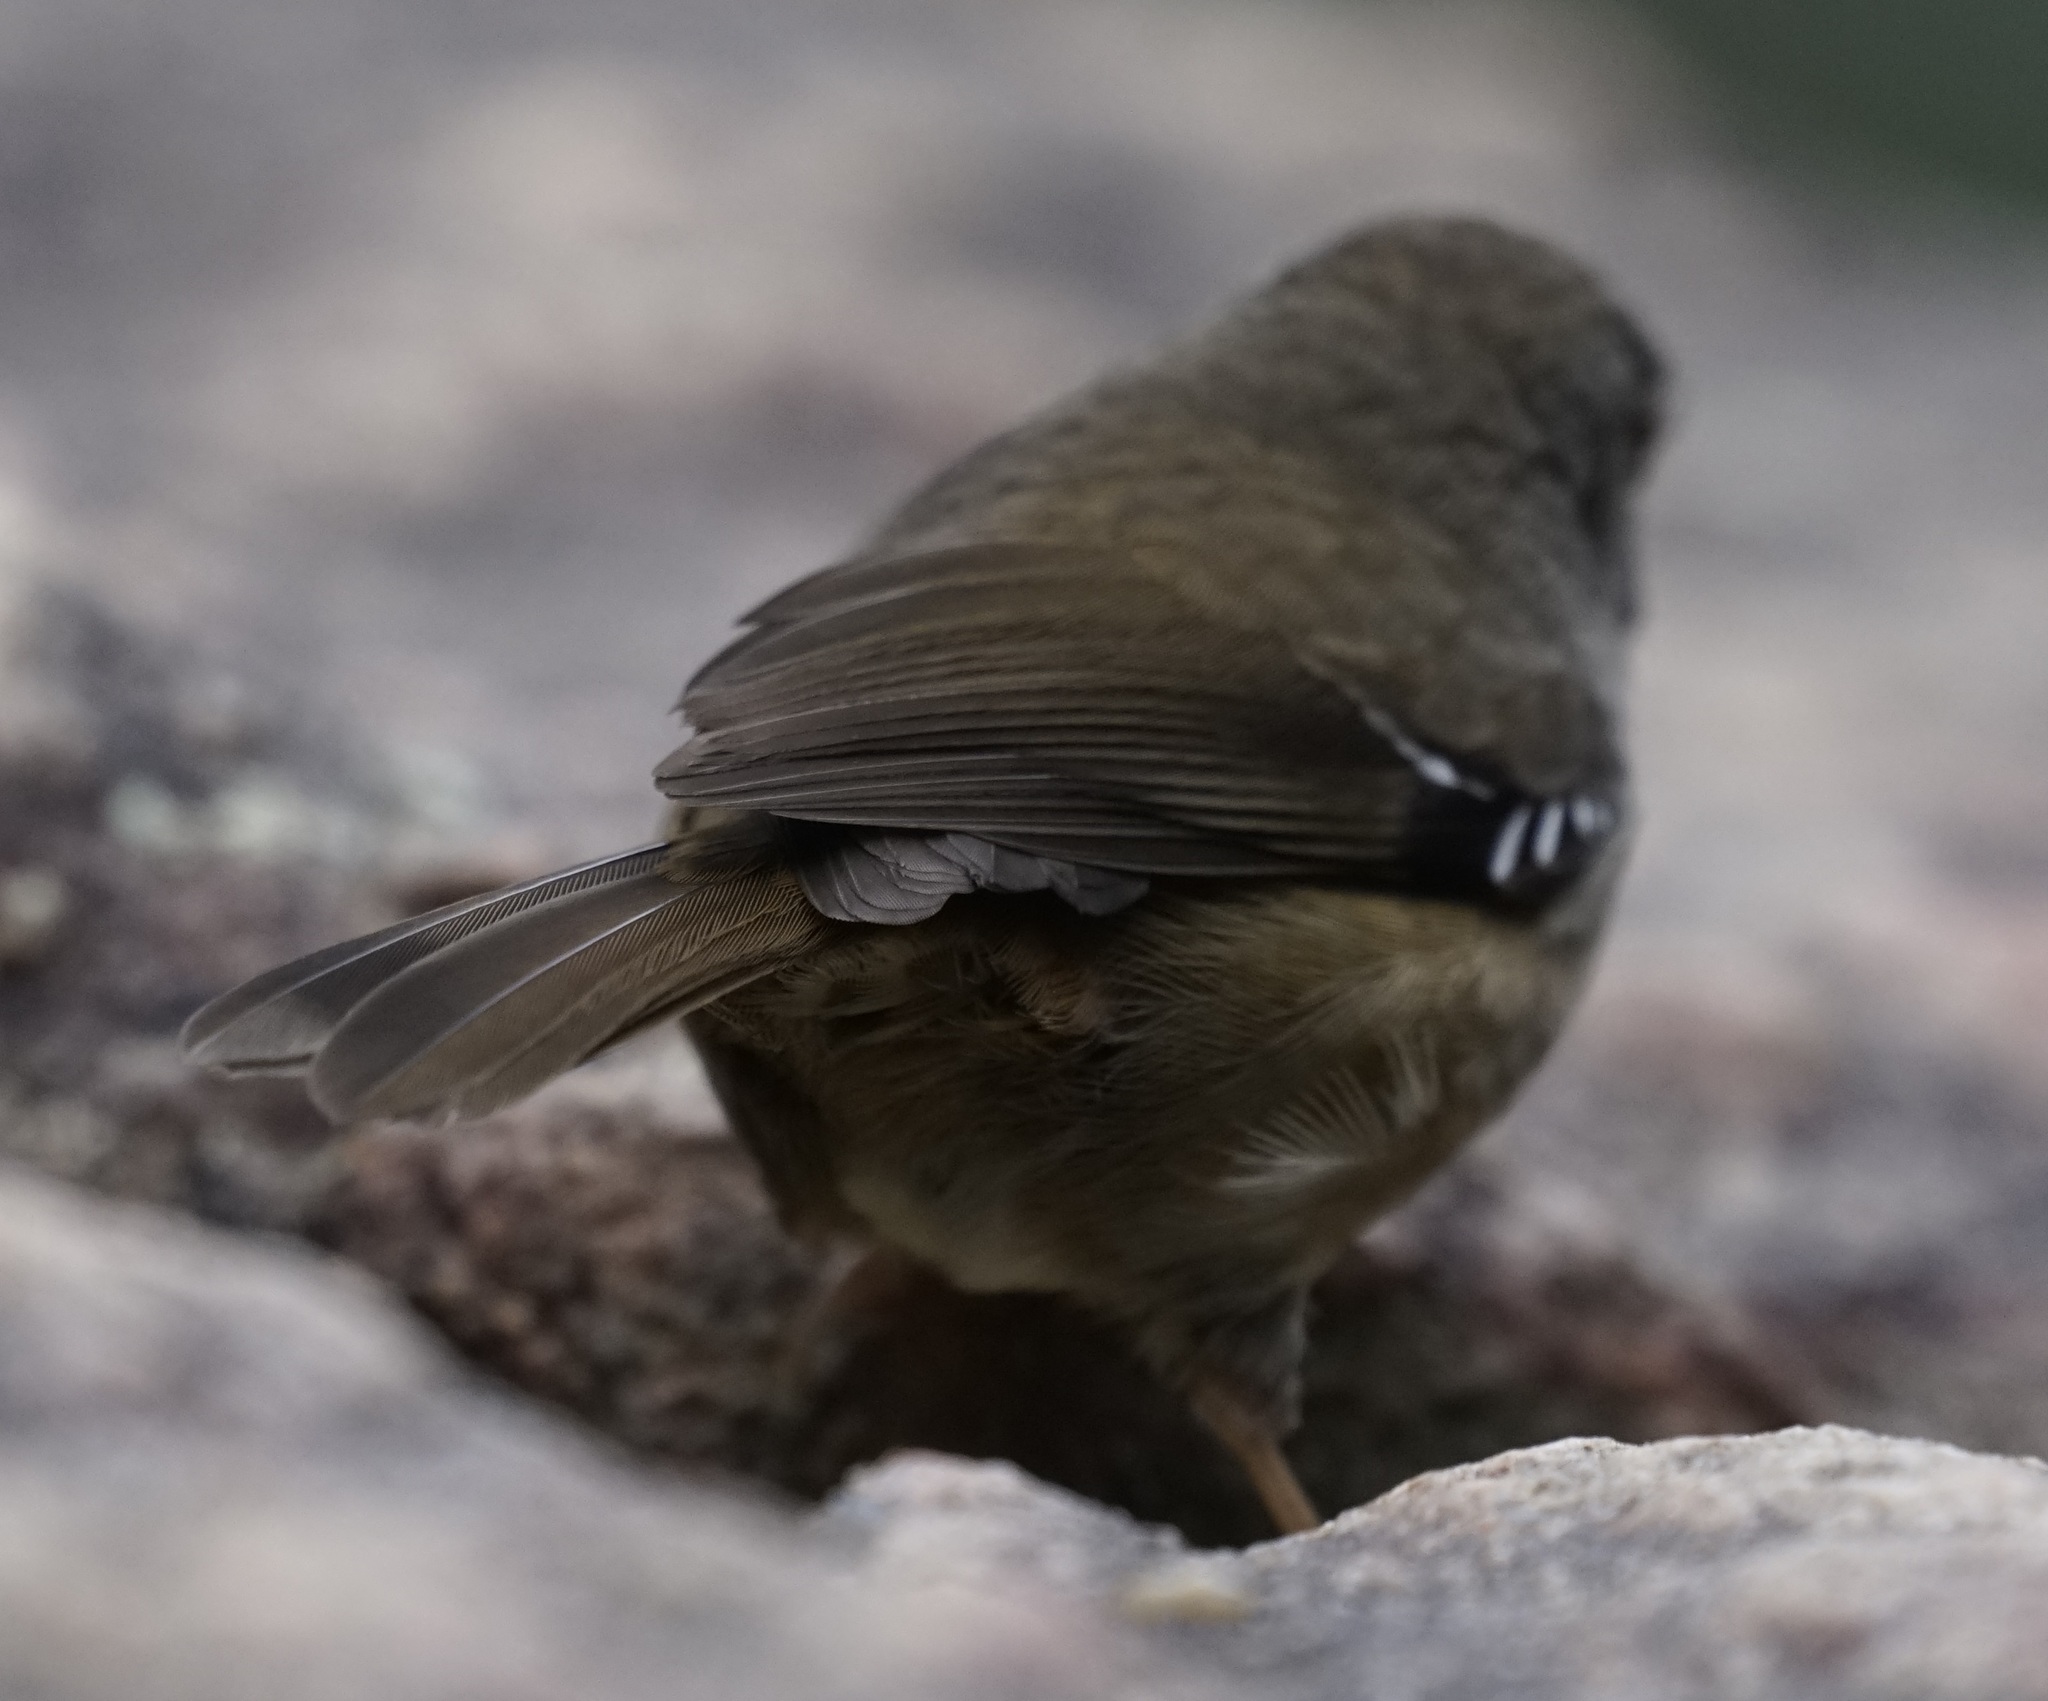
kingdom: Animalia
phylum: Chordata
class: Aves
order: Passeriformes
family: Acanthizidae
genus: Sericornis
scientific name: Sericornis frontalis
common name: White-browed scrubwren
